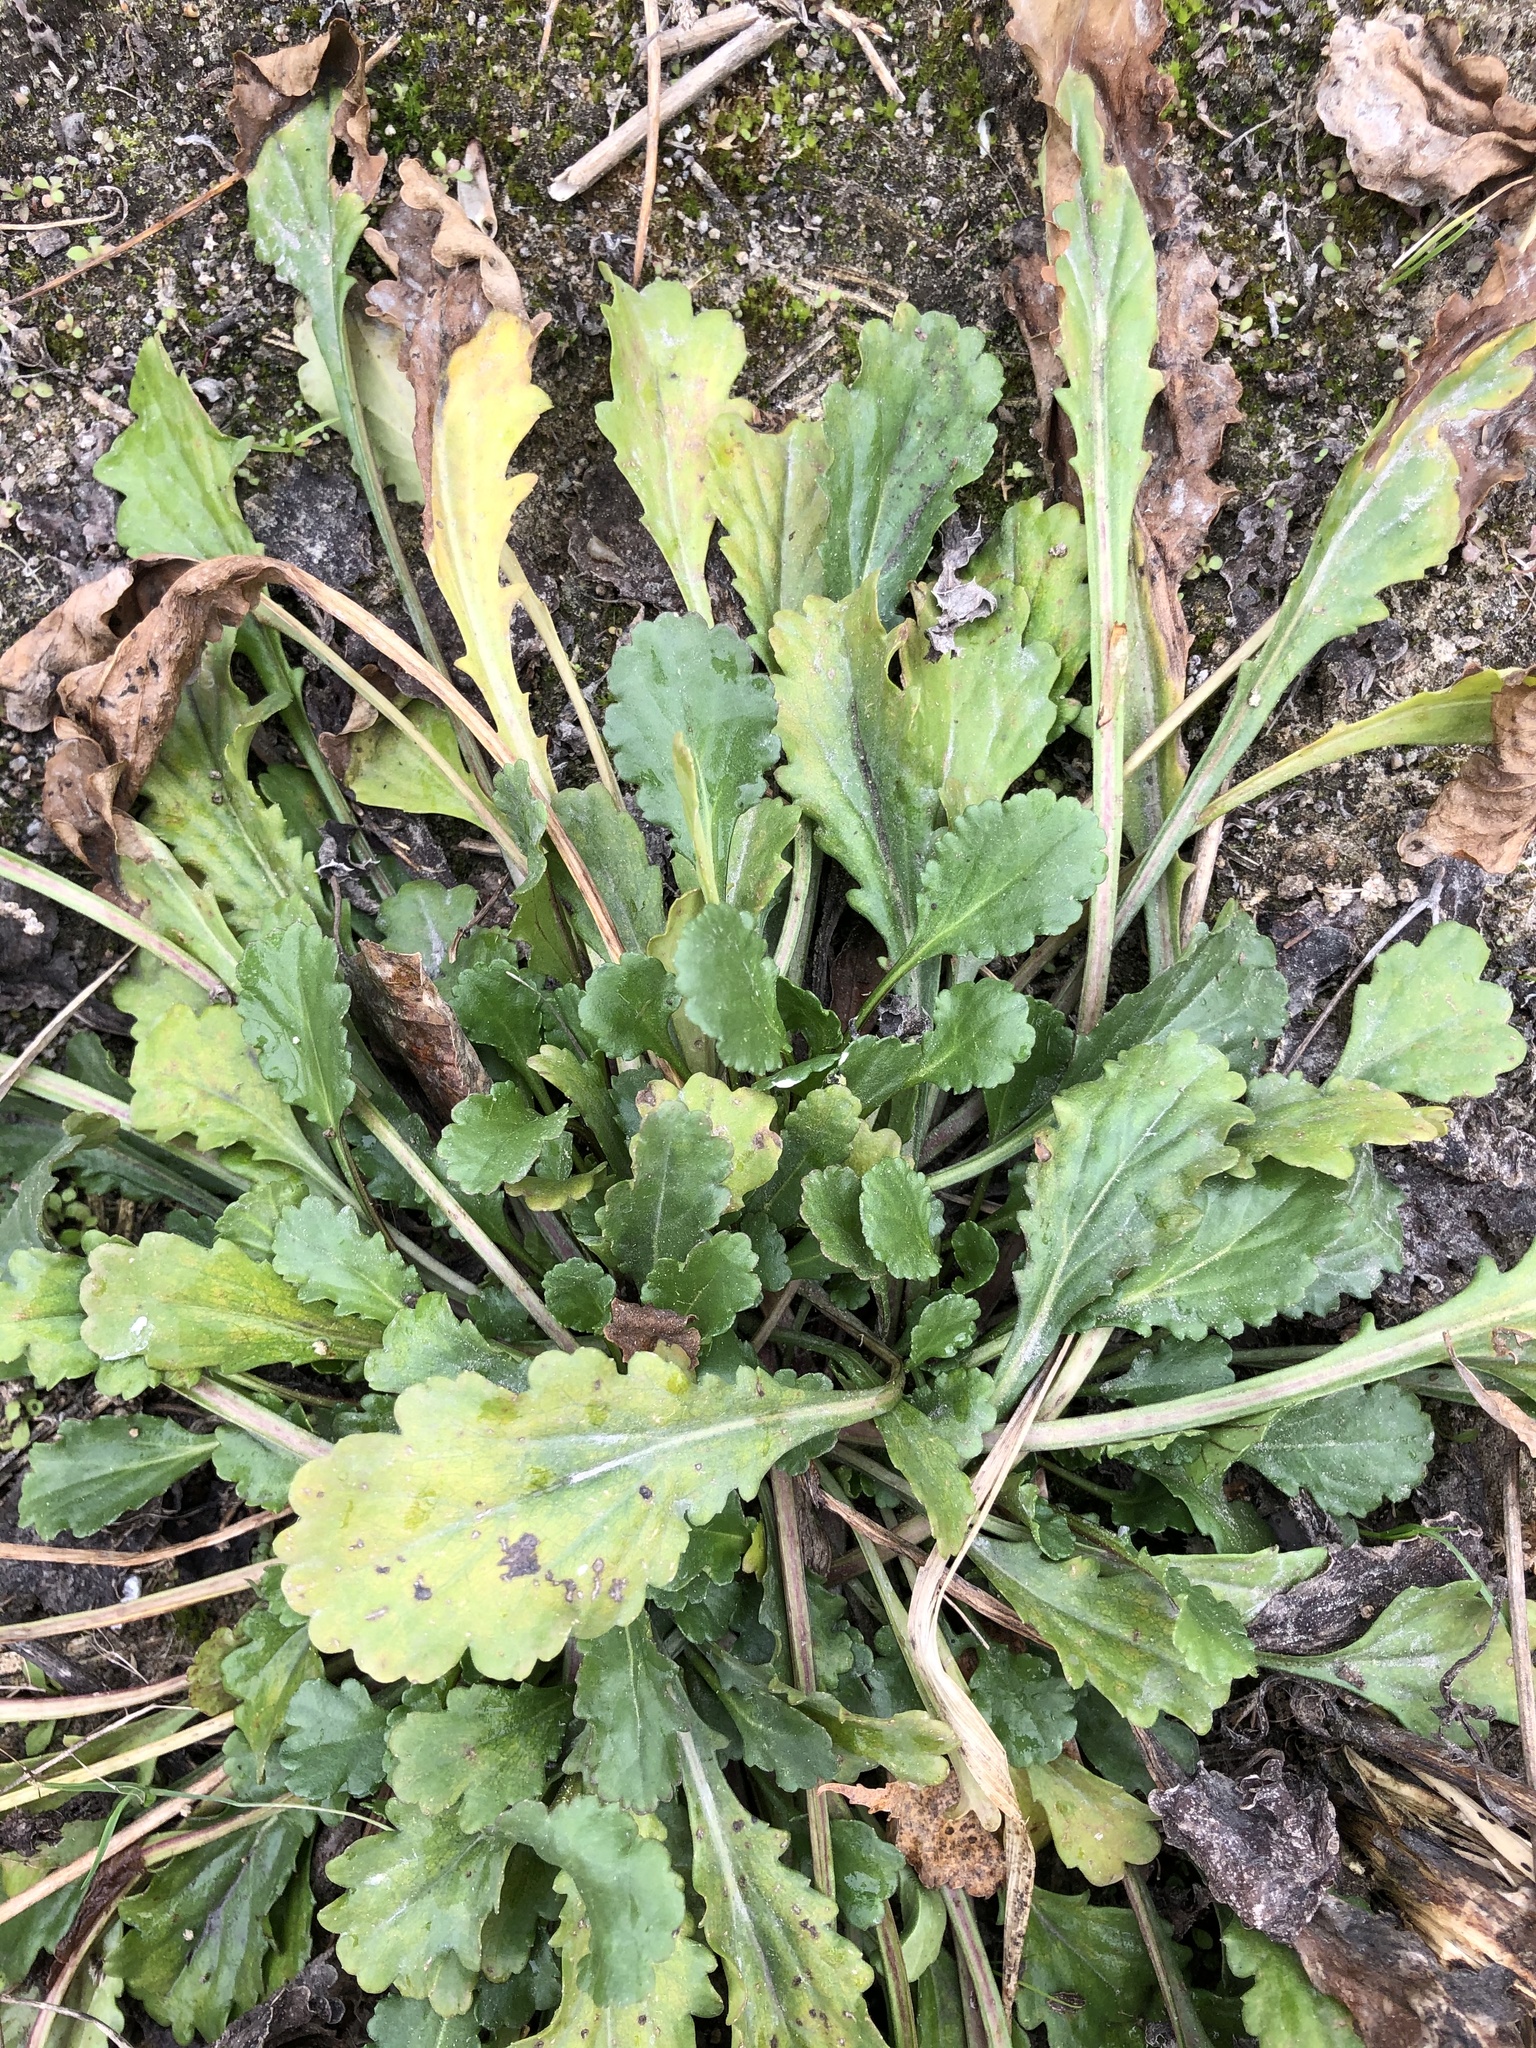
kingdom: Plantae
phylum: Tracheophyta
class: Magnoliopsida
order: Asterales
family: Asteraceae
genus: Leucanthemum
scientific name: Leucanthemum ircutianum
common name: Daisy
